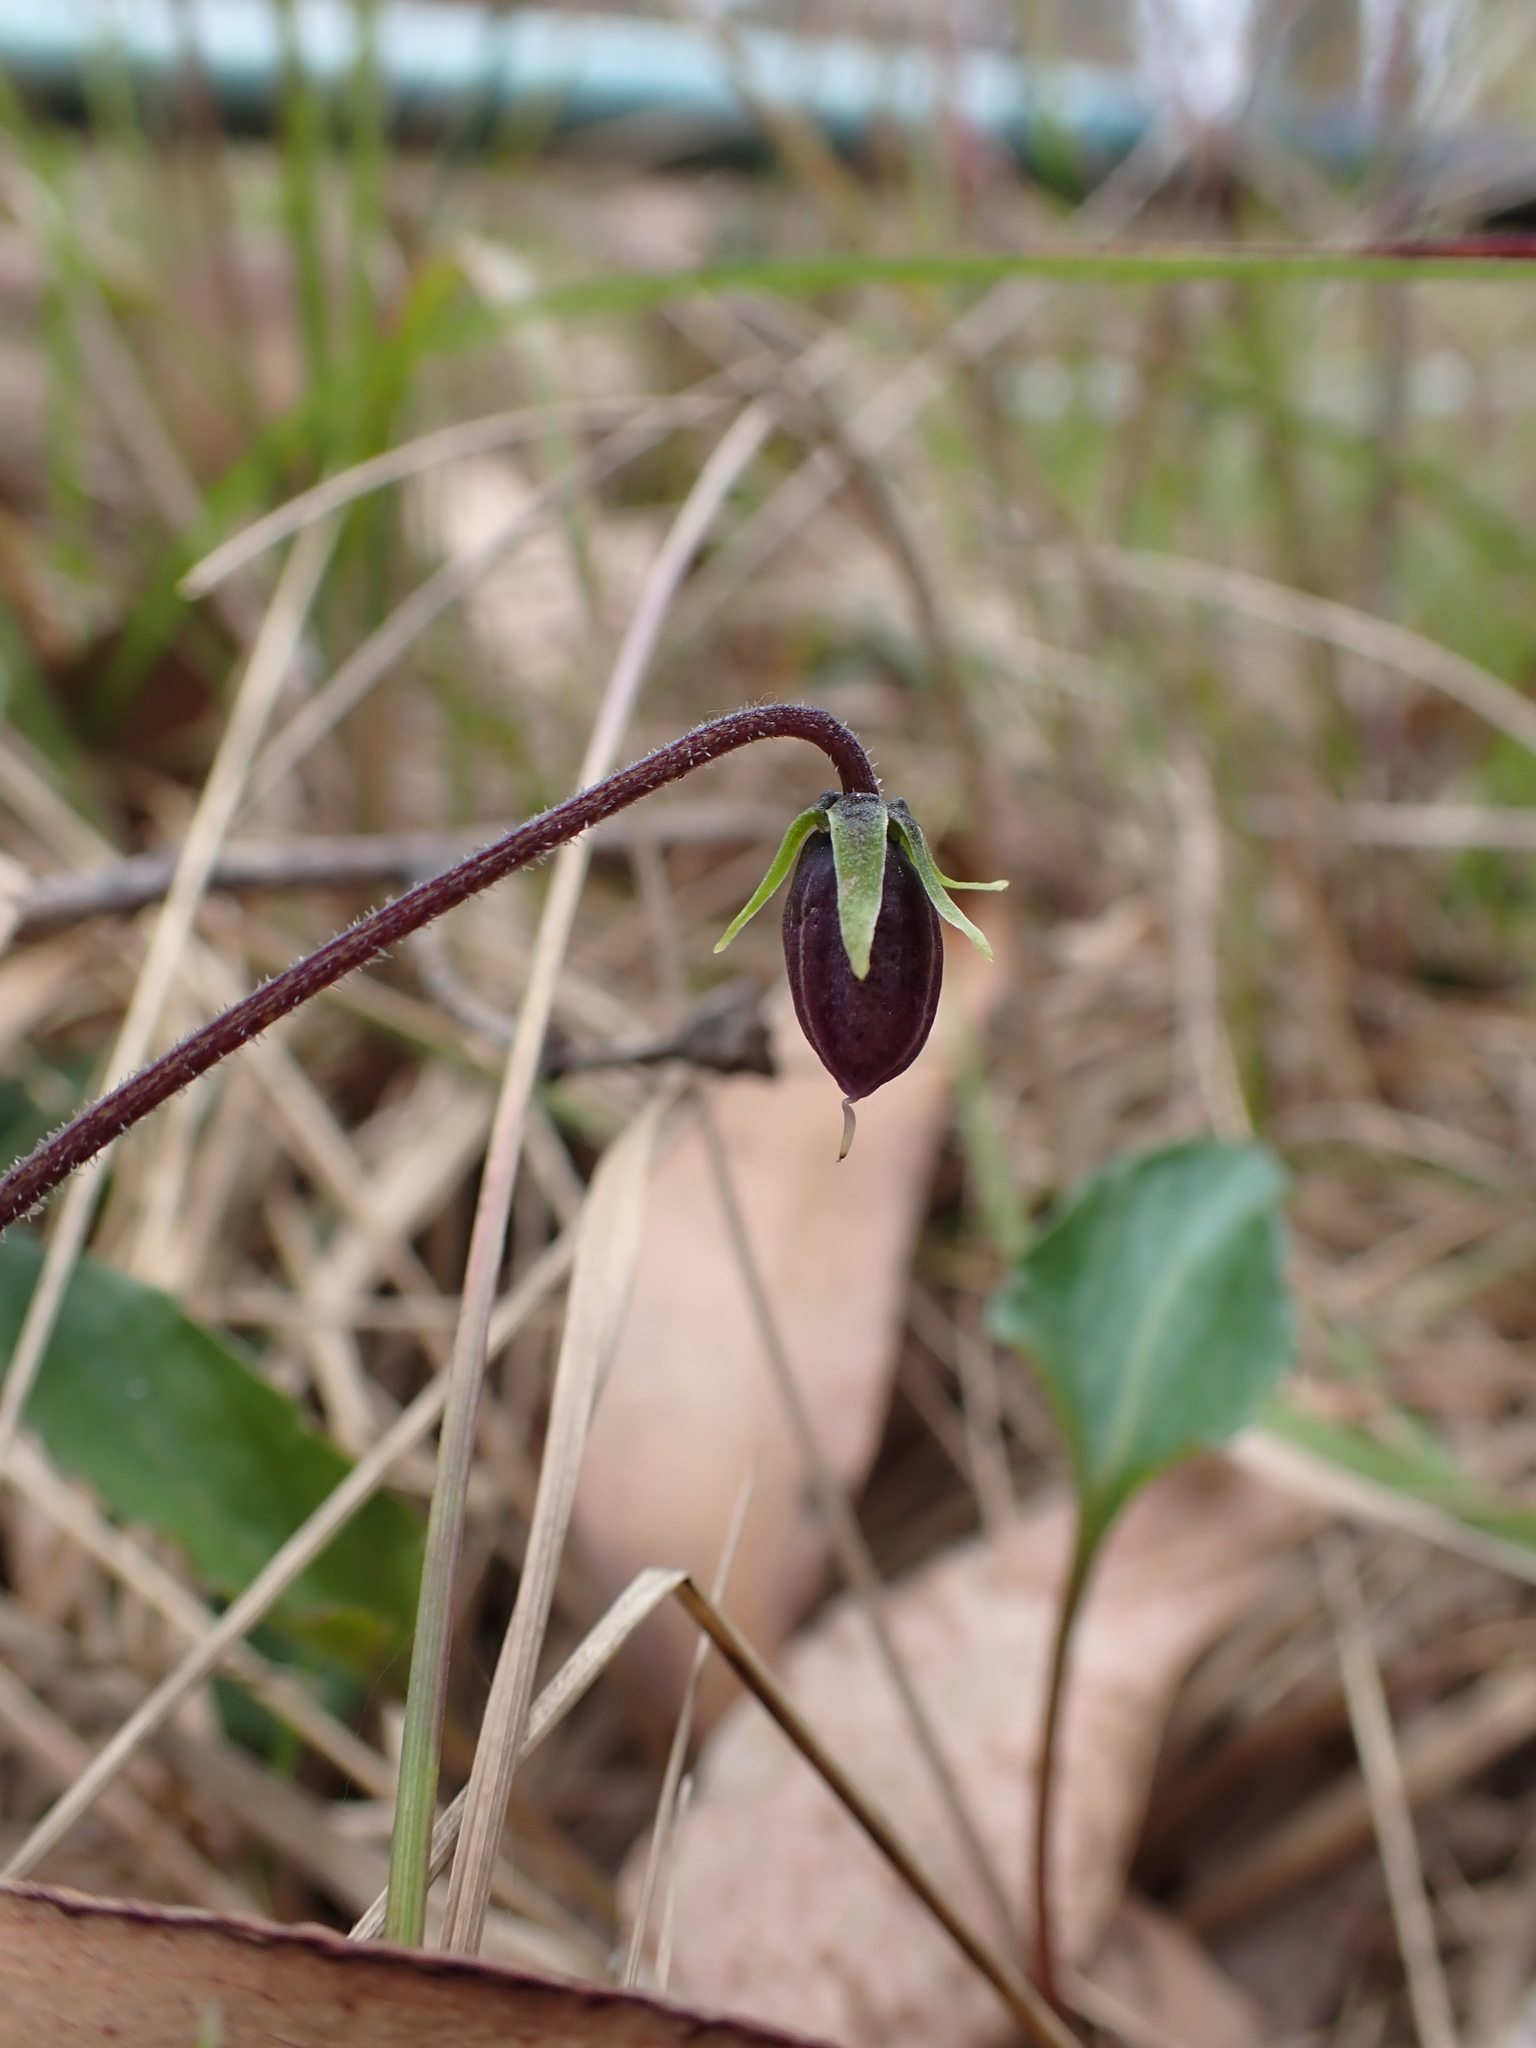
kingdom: Plantae
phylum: Tracheophyta
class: Magnoliopsida
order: Malpighiales
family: Violaceae
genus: Viola
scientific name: Viola hederacea
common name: Australian violet
